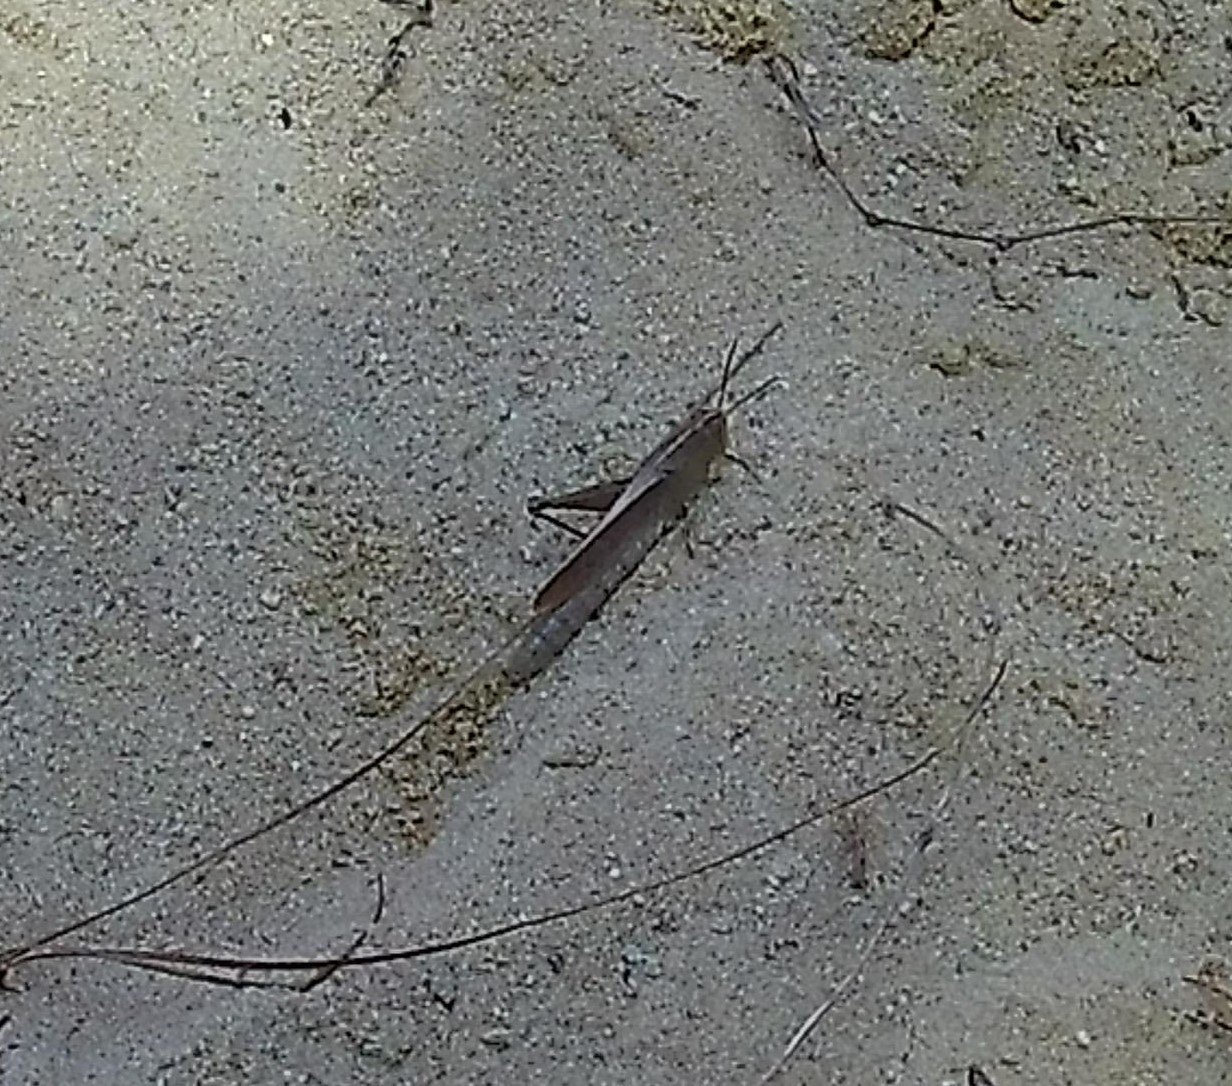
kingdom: Animalia
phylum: Arthropoda
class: Insecta
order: Orthoptera
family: Acrididae
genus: Schistocerca
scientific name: Schistocerca damnifica
